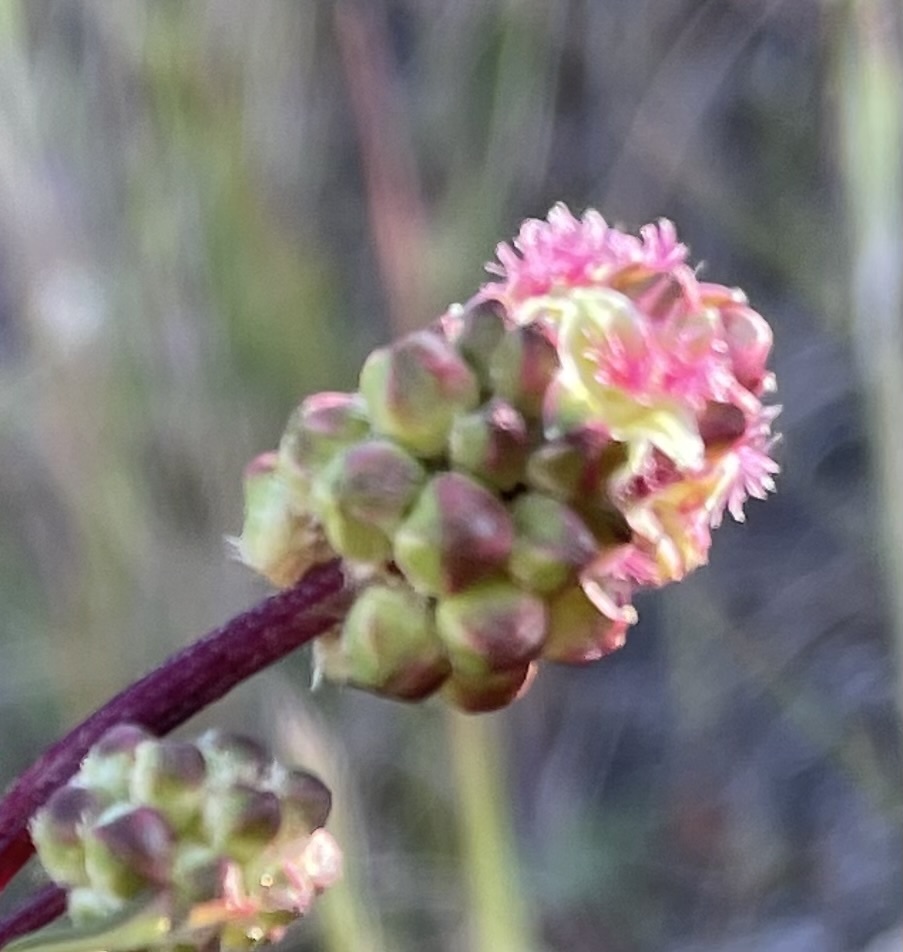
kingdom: Plantae
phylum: Tracheophyta
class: Magnoliopsida
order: Rosales
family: Rosaceae
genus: Poterium
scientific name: Poterium sanguisorba
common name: Salad burnet
